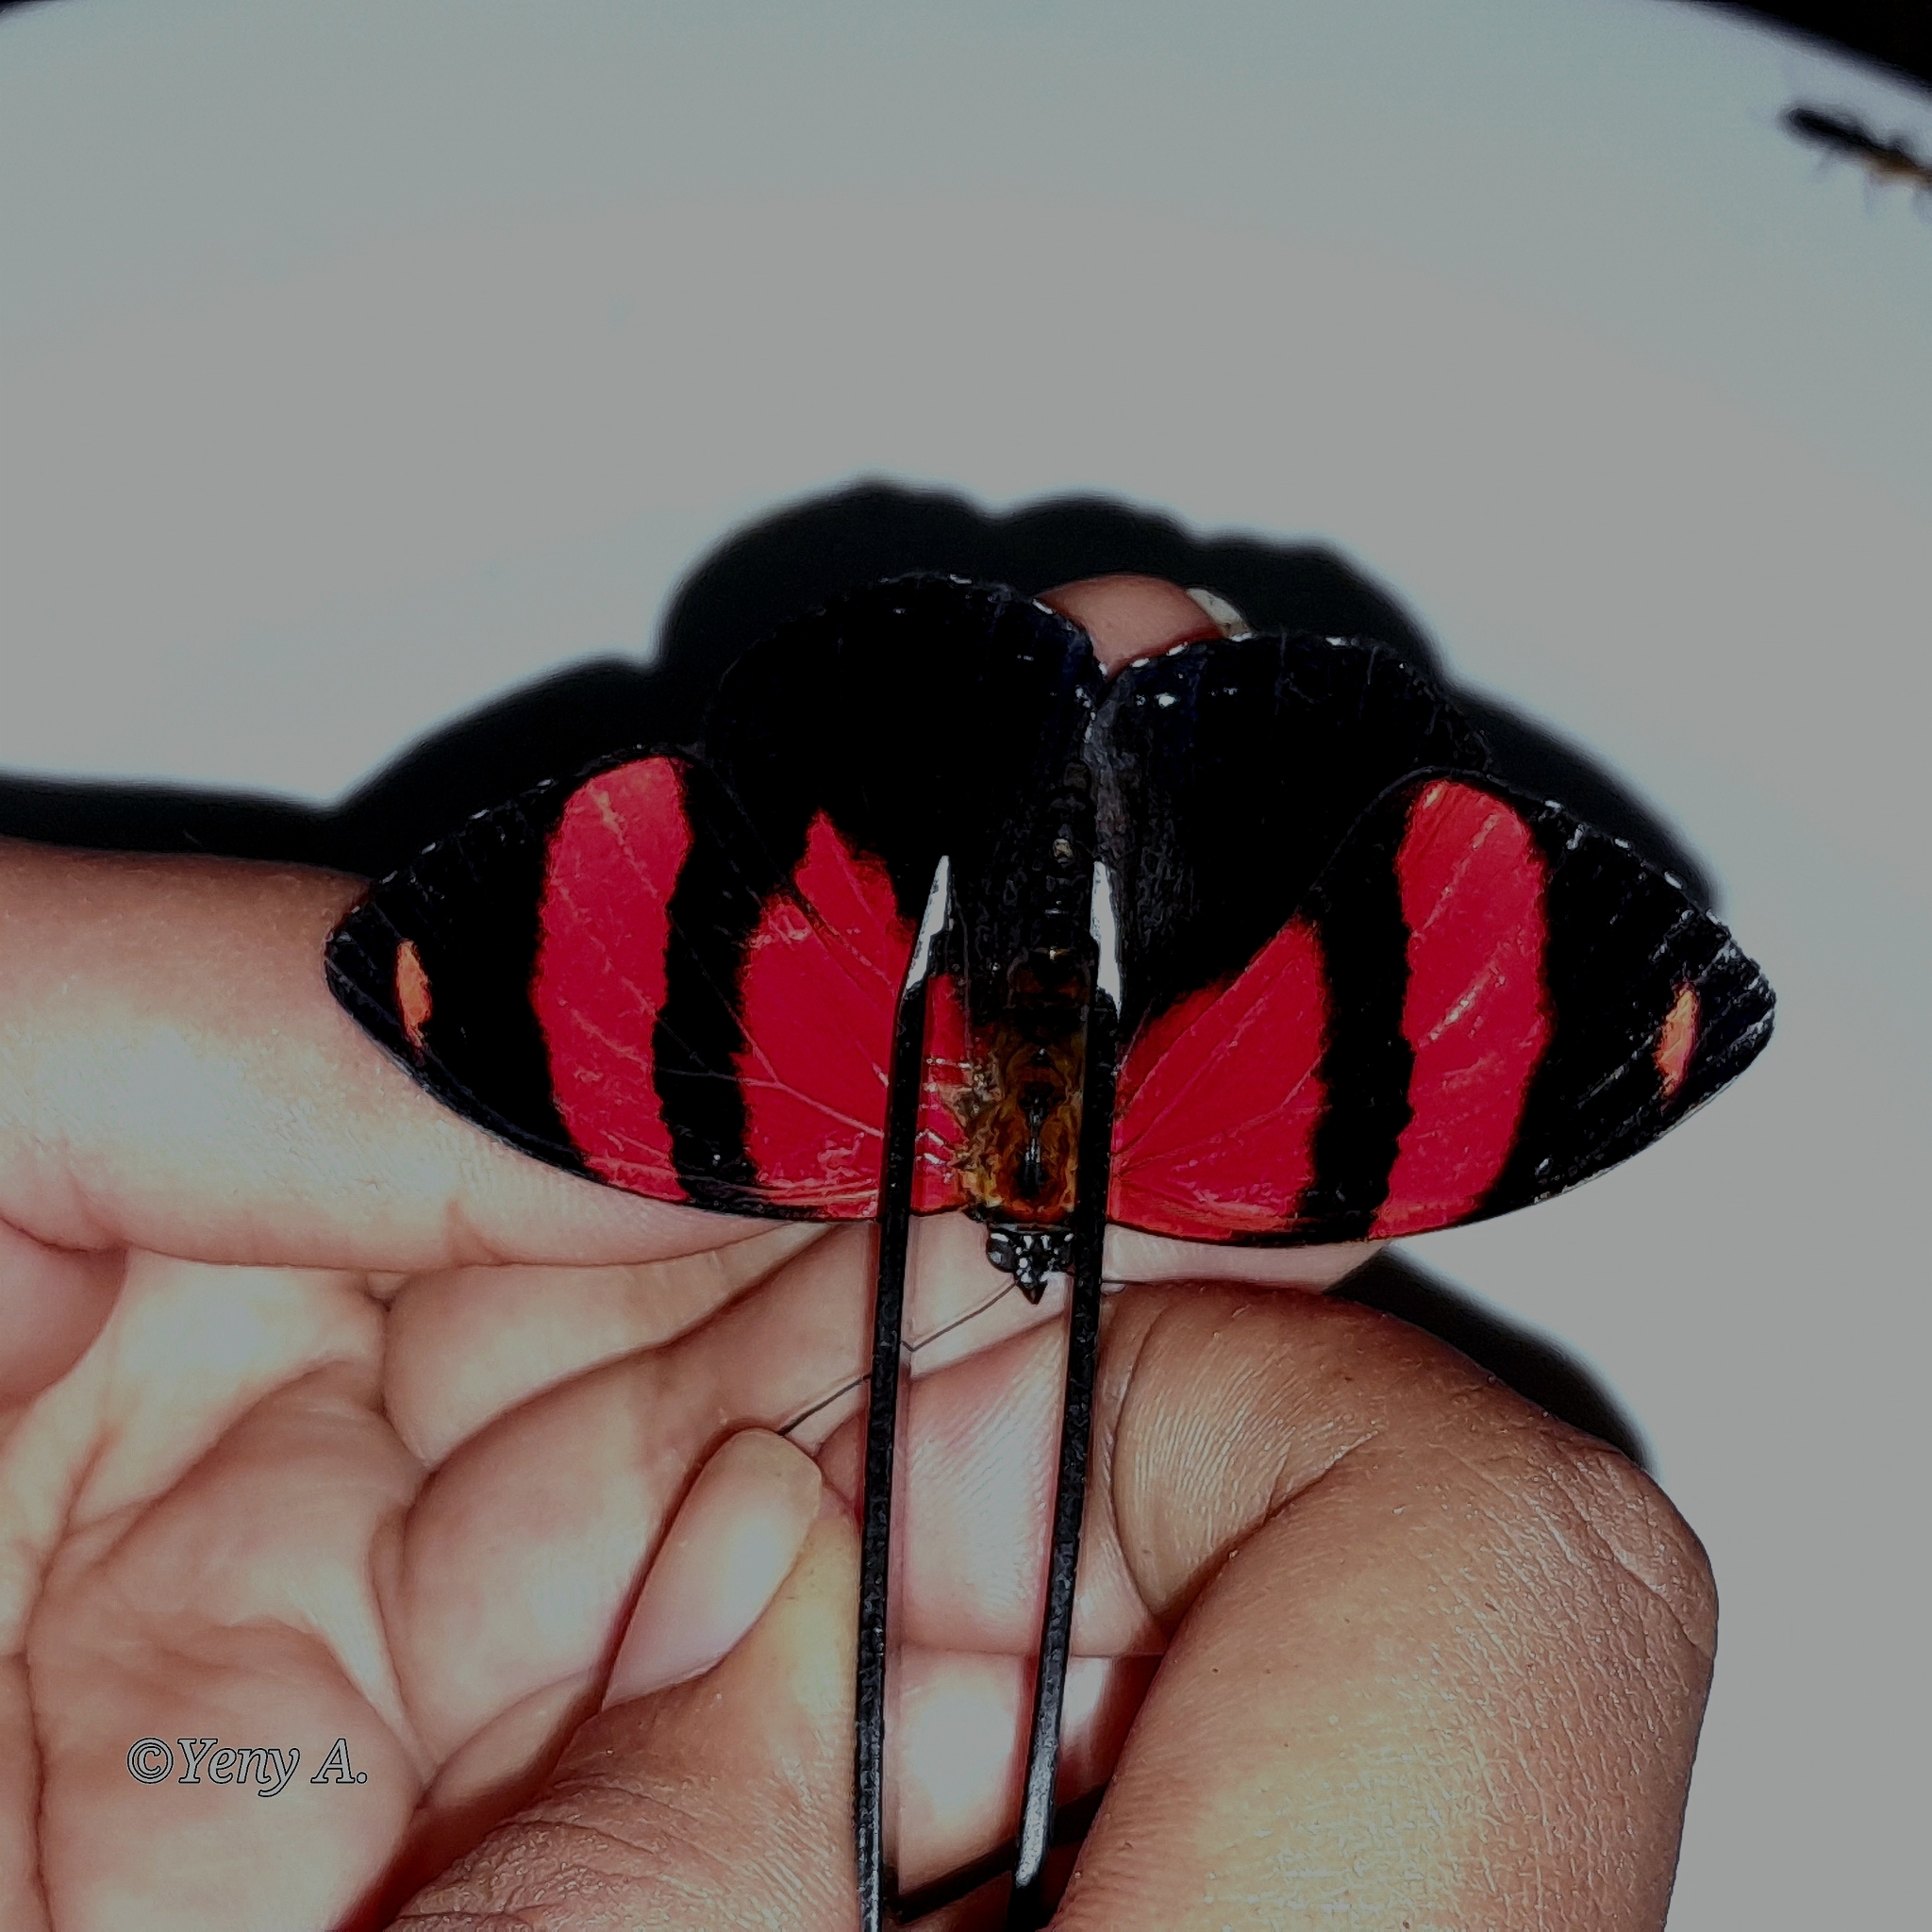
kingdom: Animalia
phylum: Arthropoda
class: Insecta
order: Lepidoptera
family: Nymphalidae
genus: Catagramma
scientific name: Catagramma cynosura
